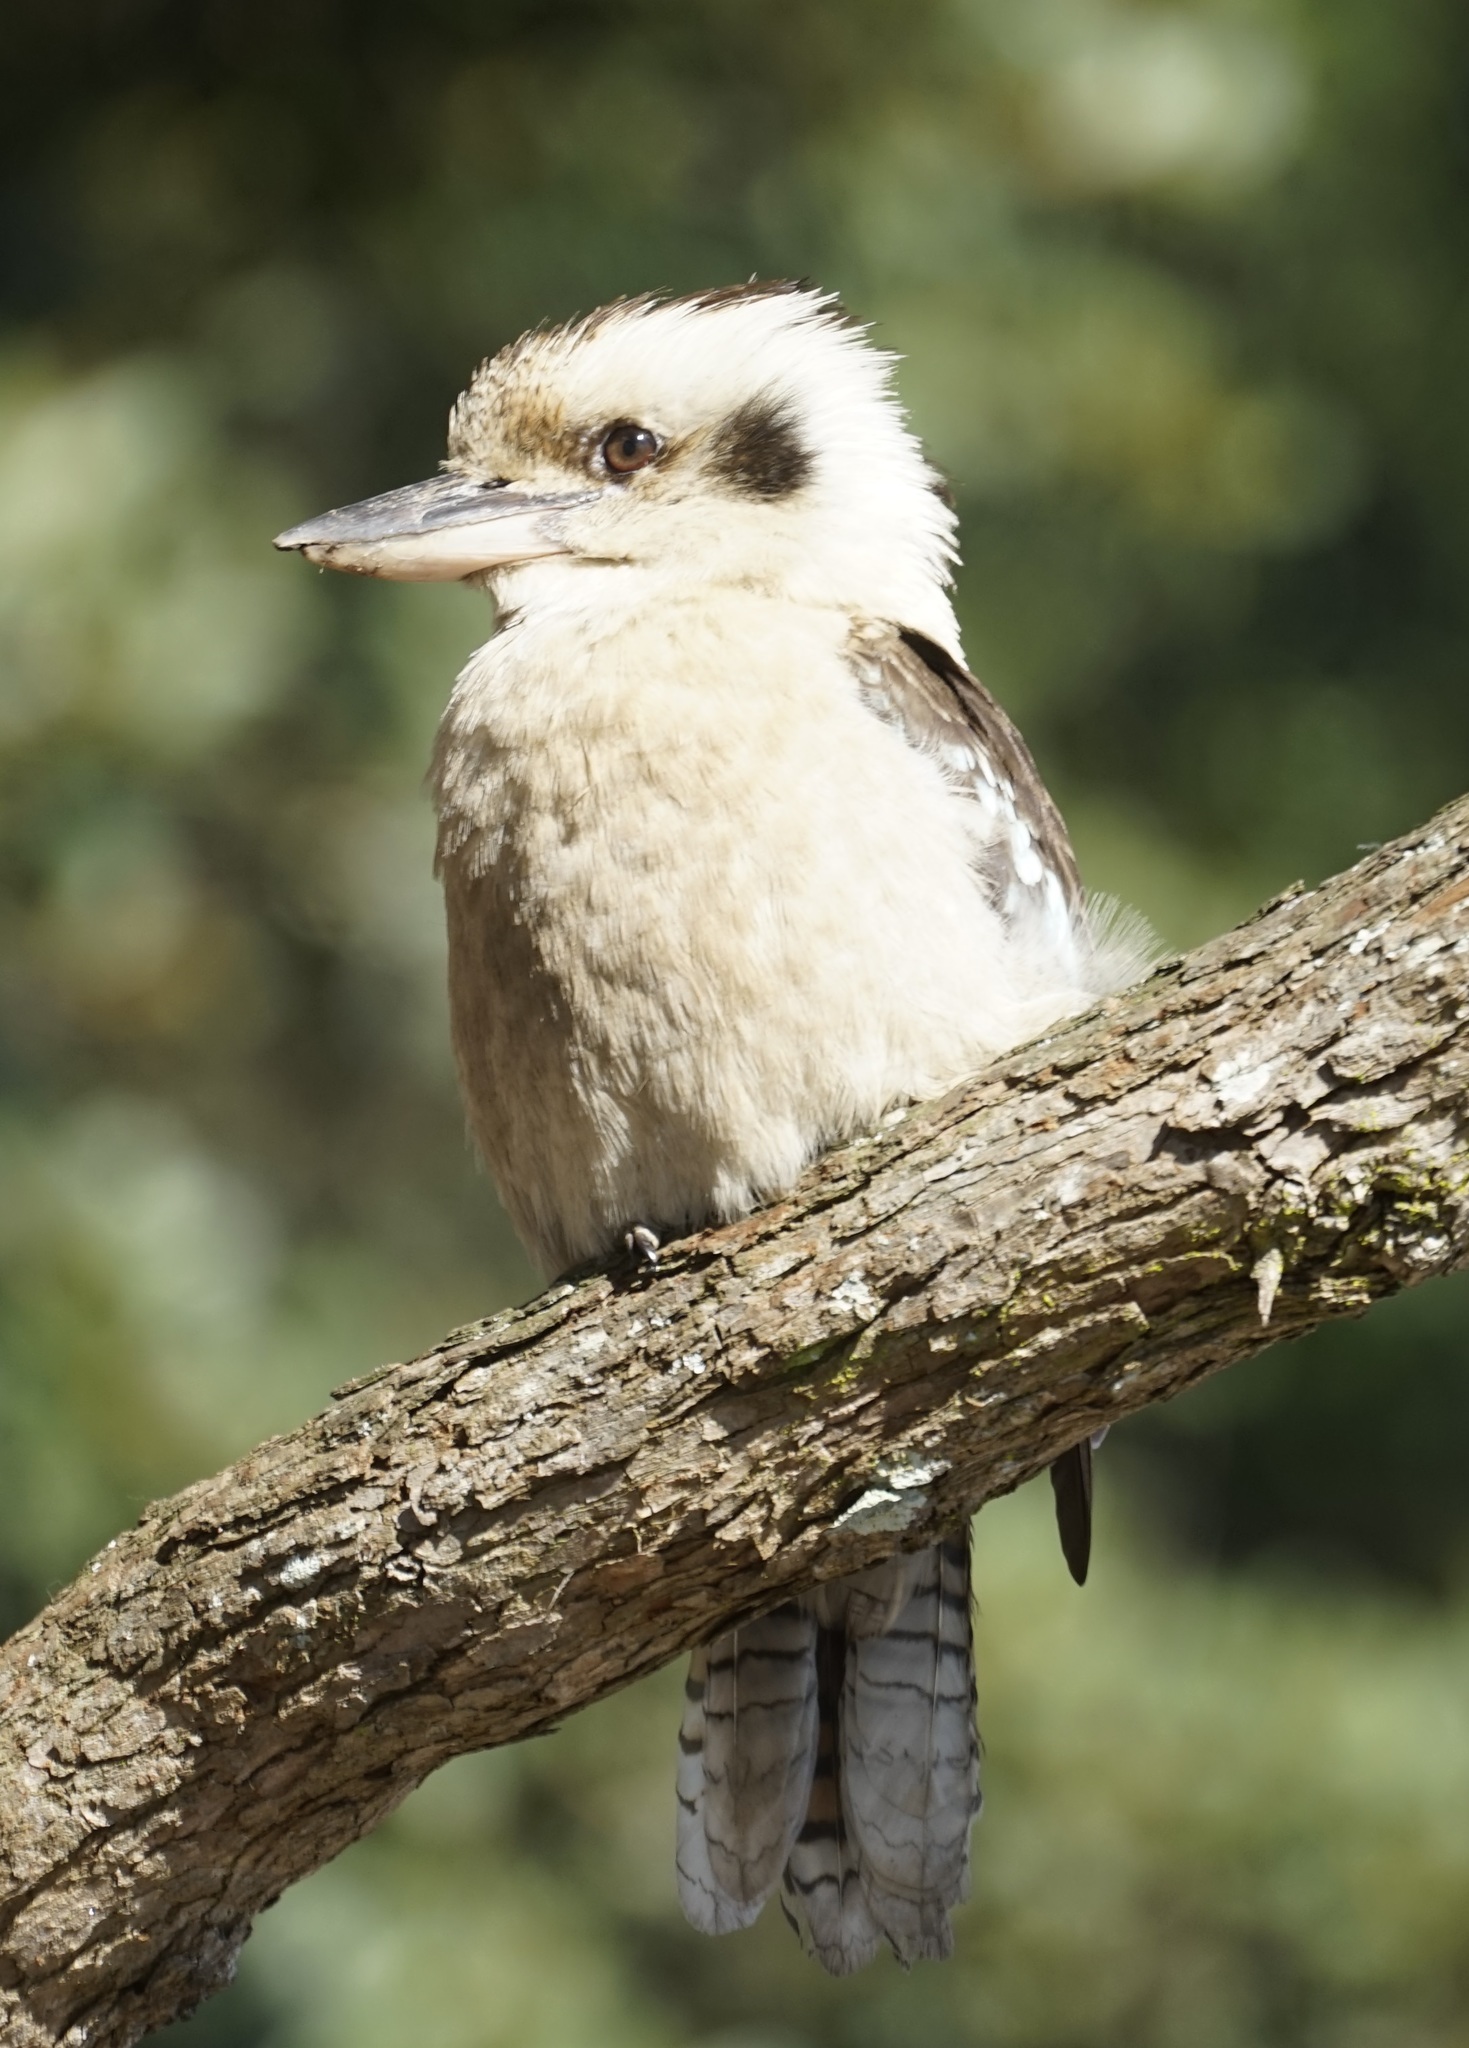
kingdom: Animalia
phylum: Chordata
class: Aves
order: Coraciiformes
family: Alcedinidae
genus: Dacelo
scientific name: Dacelo novaeguineae
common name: Laughing kookaburra
